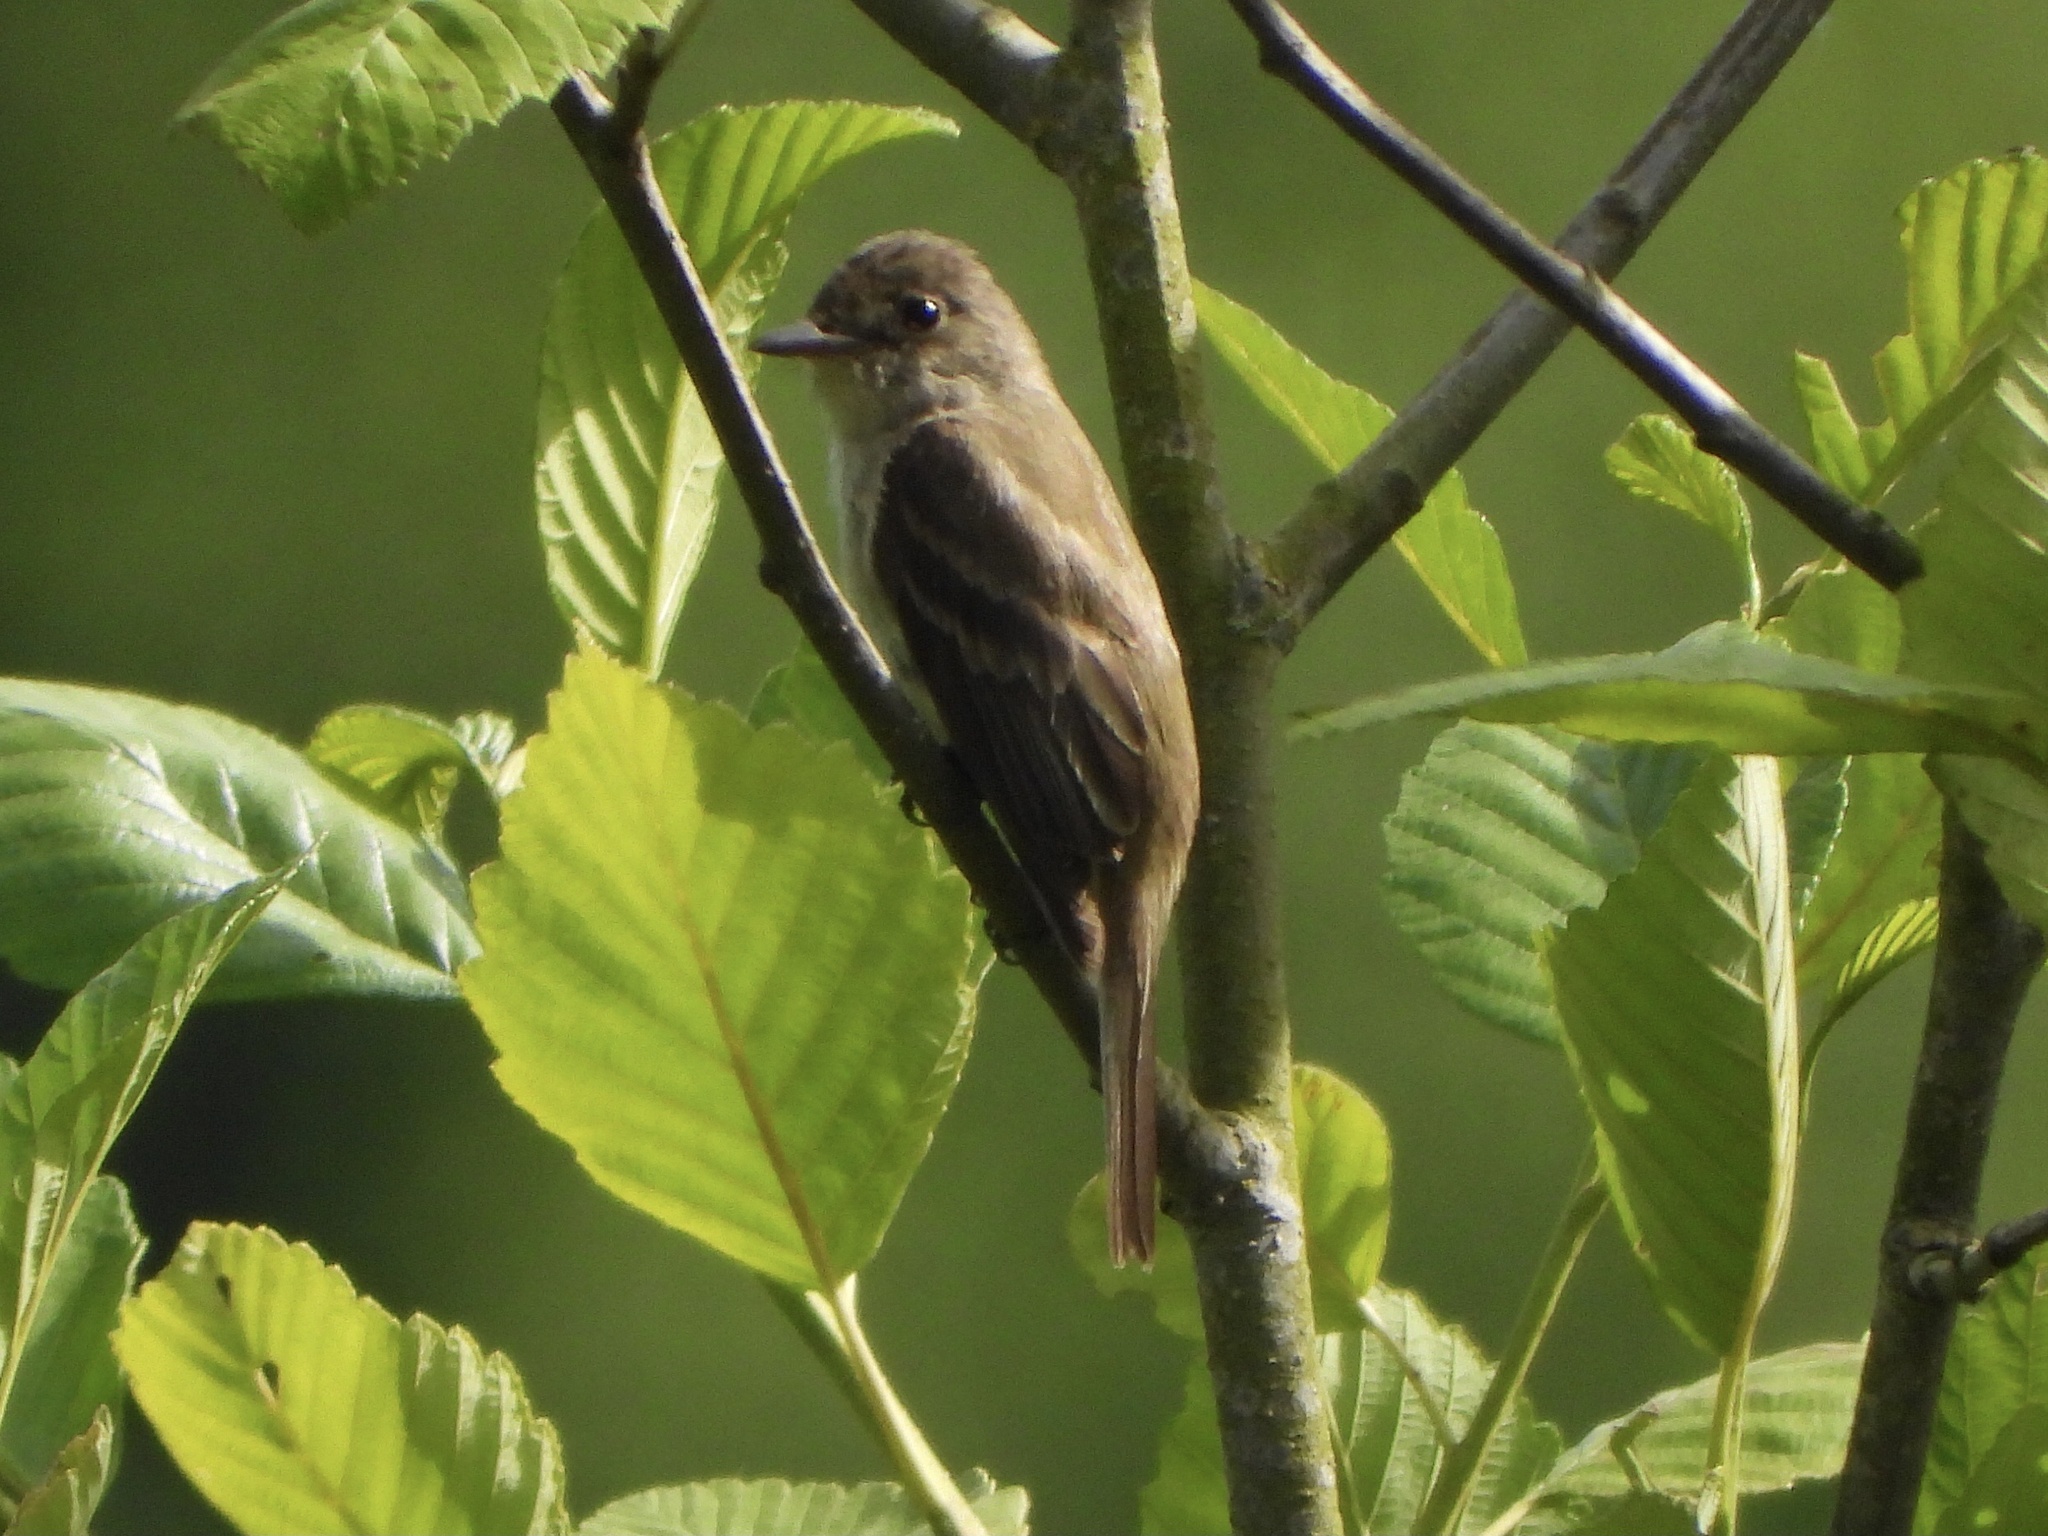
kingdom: Animalia
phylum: Chordata
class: Aves
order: Passeriformes
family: Tyrannidae
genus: Empidonax
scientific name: Empidonax traillii
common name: Willow flycatcher
